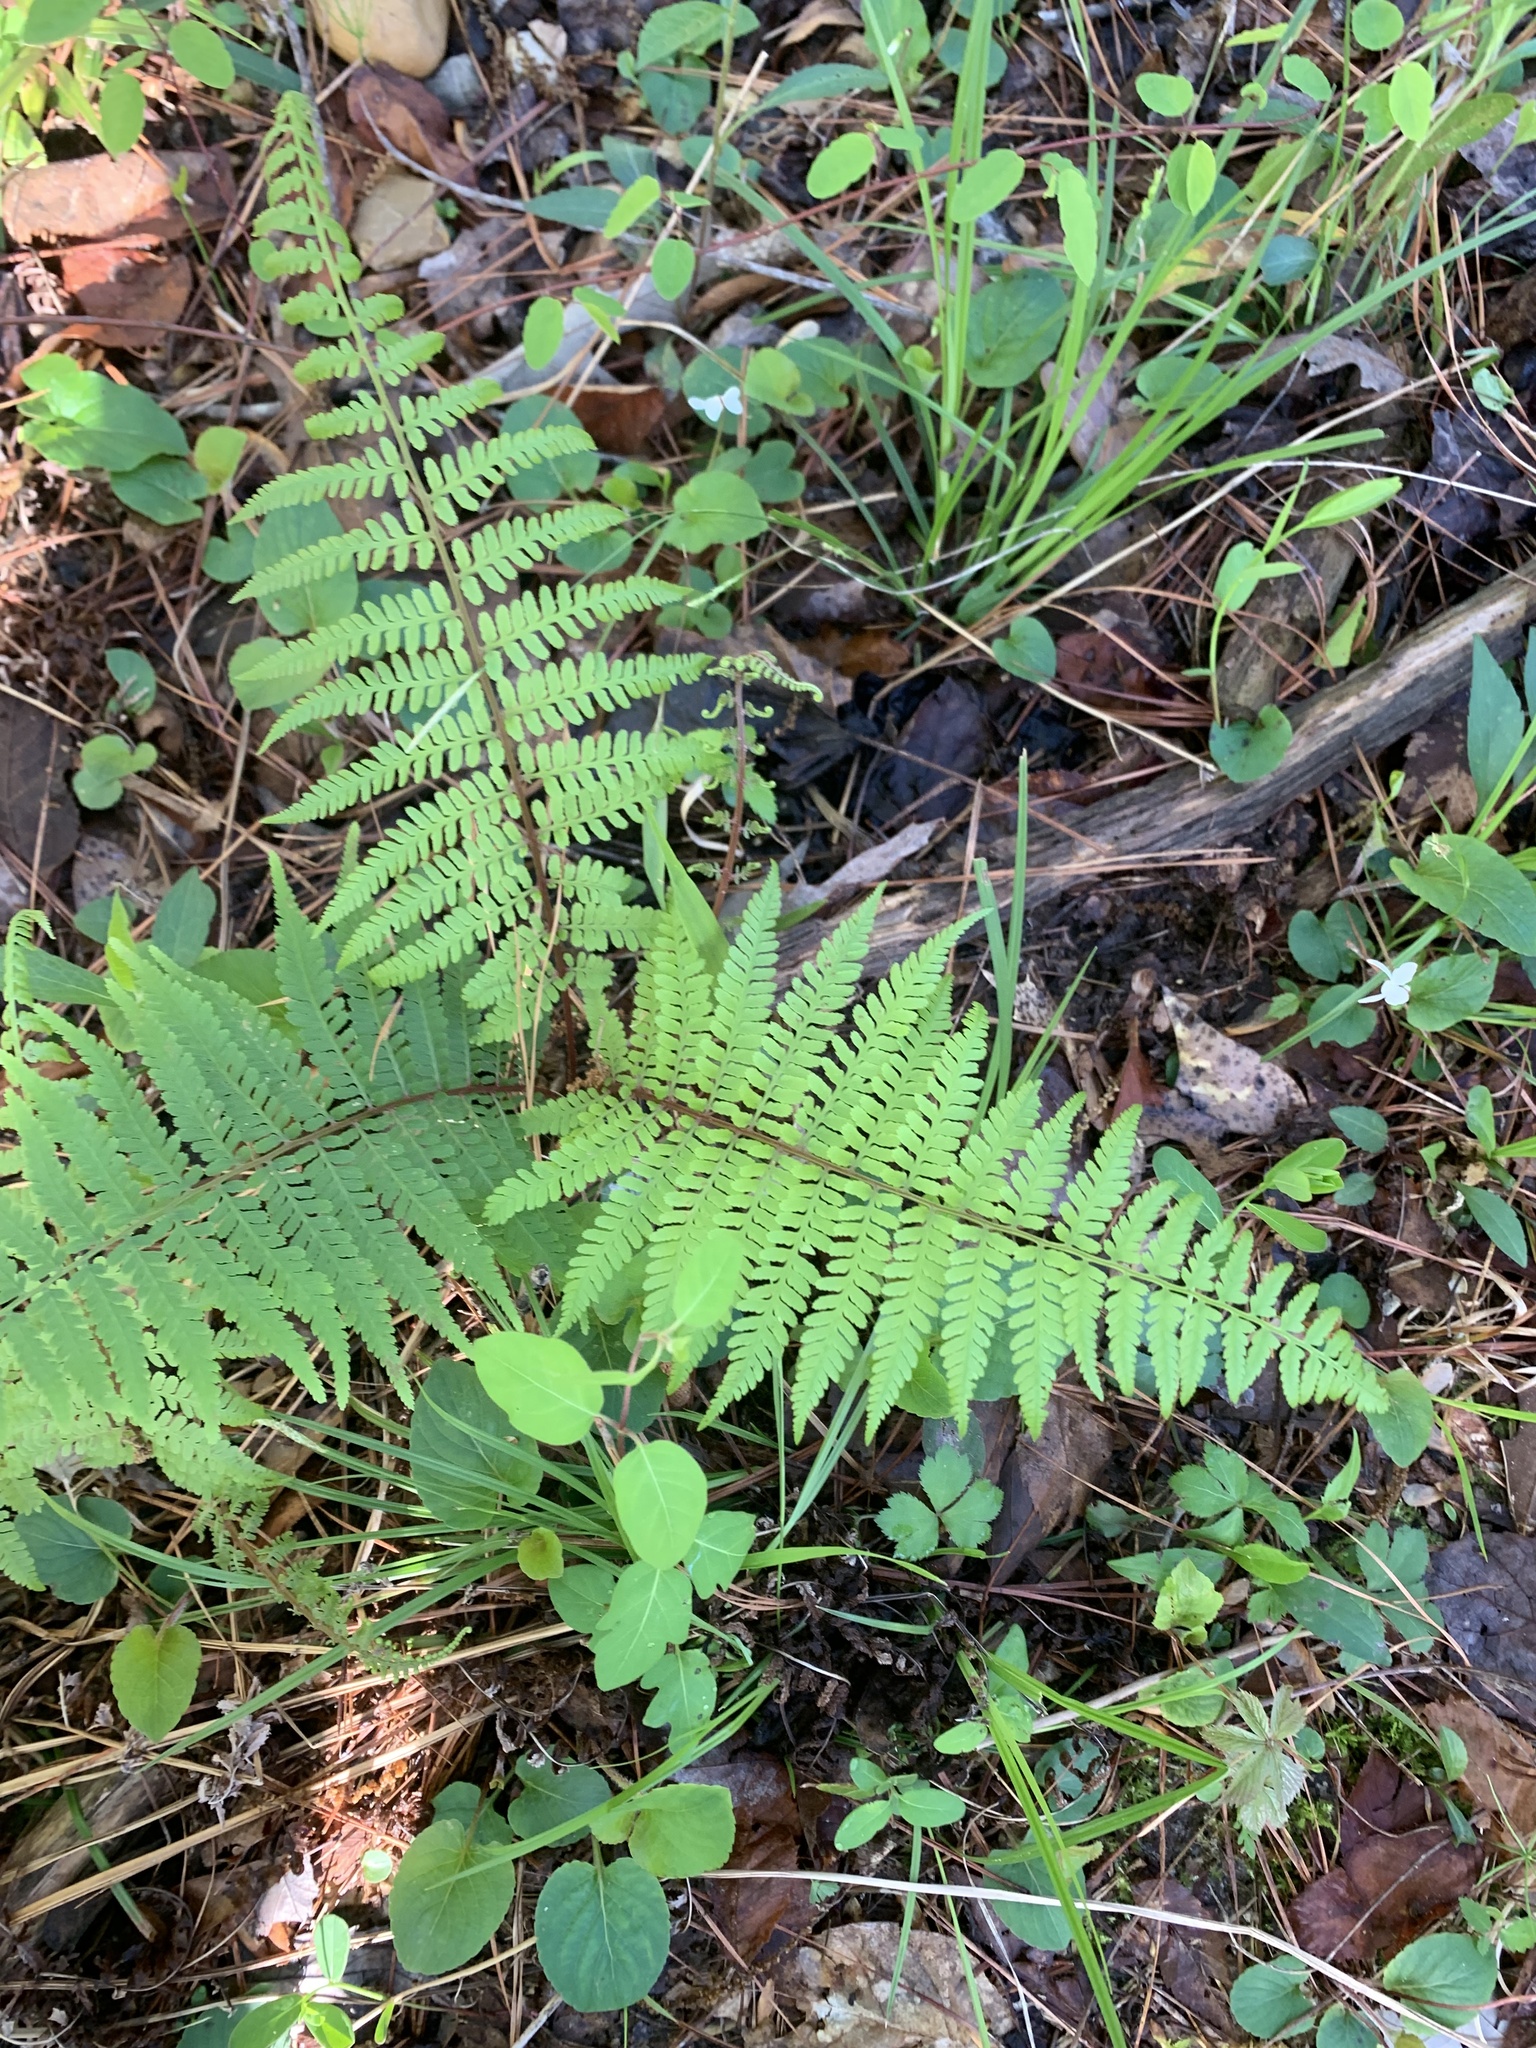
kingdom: Plantae
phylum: Tracheophyta
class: Polypodiopsida
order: Polypodiales
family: Athyriaceae
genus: Athyrium
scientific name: Athyrium asplenioides
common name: Southern lady fern
